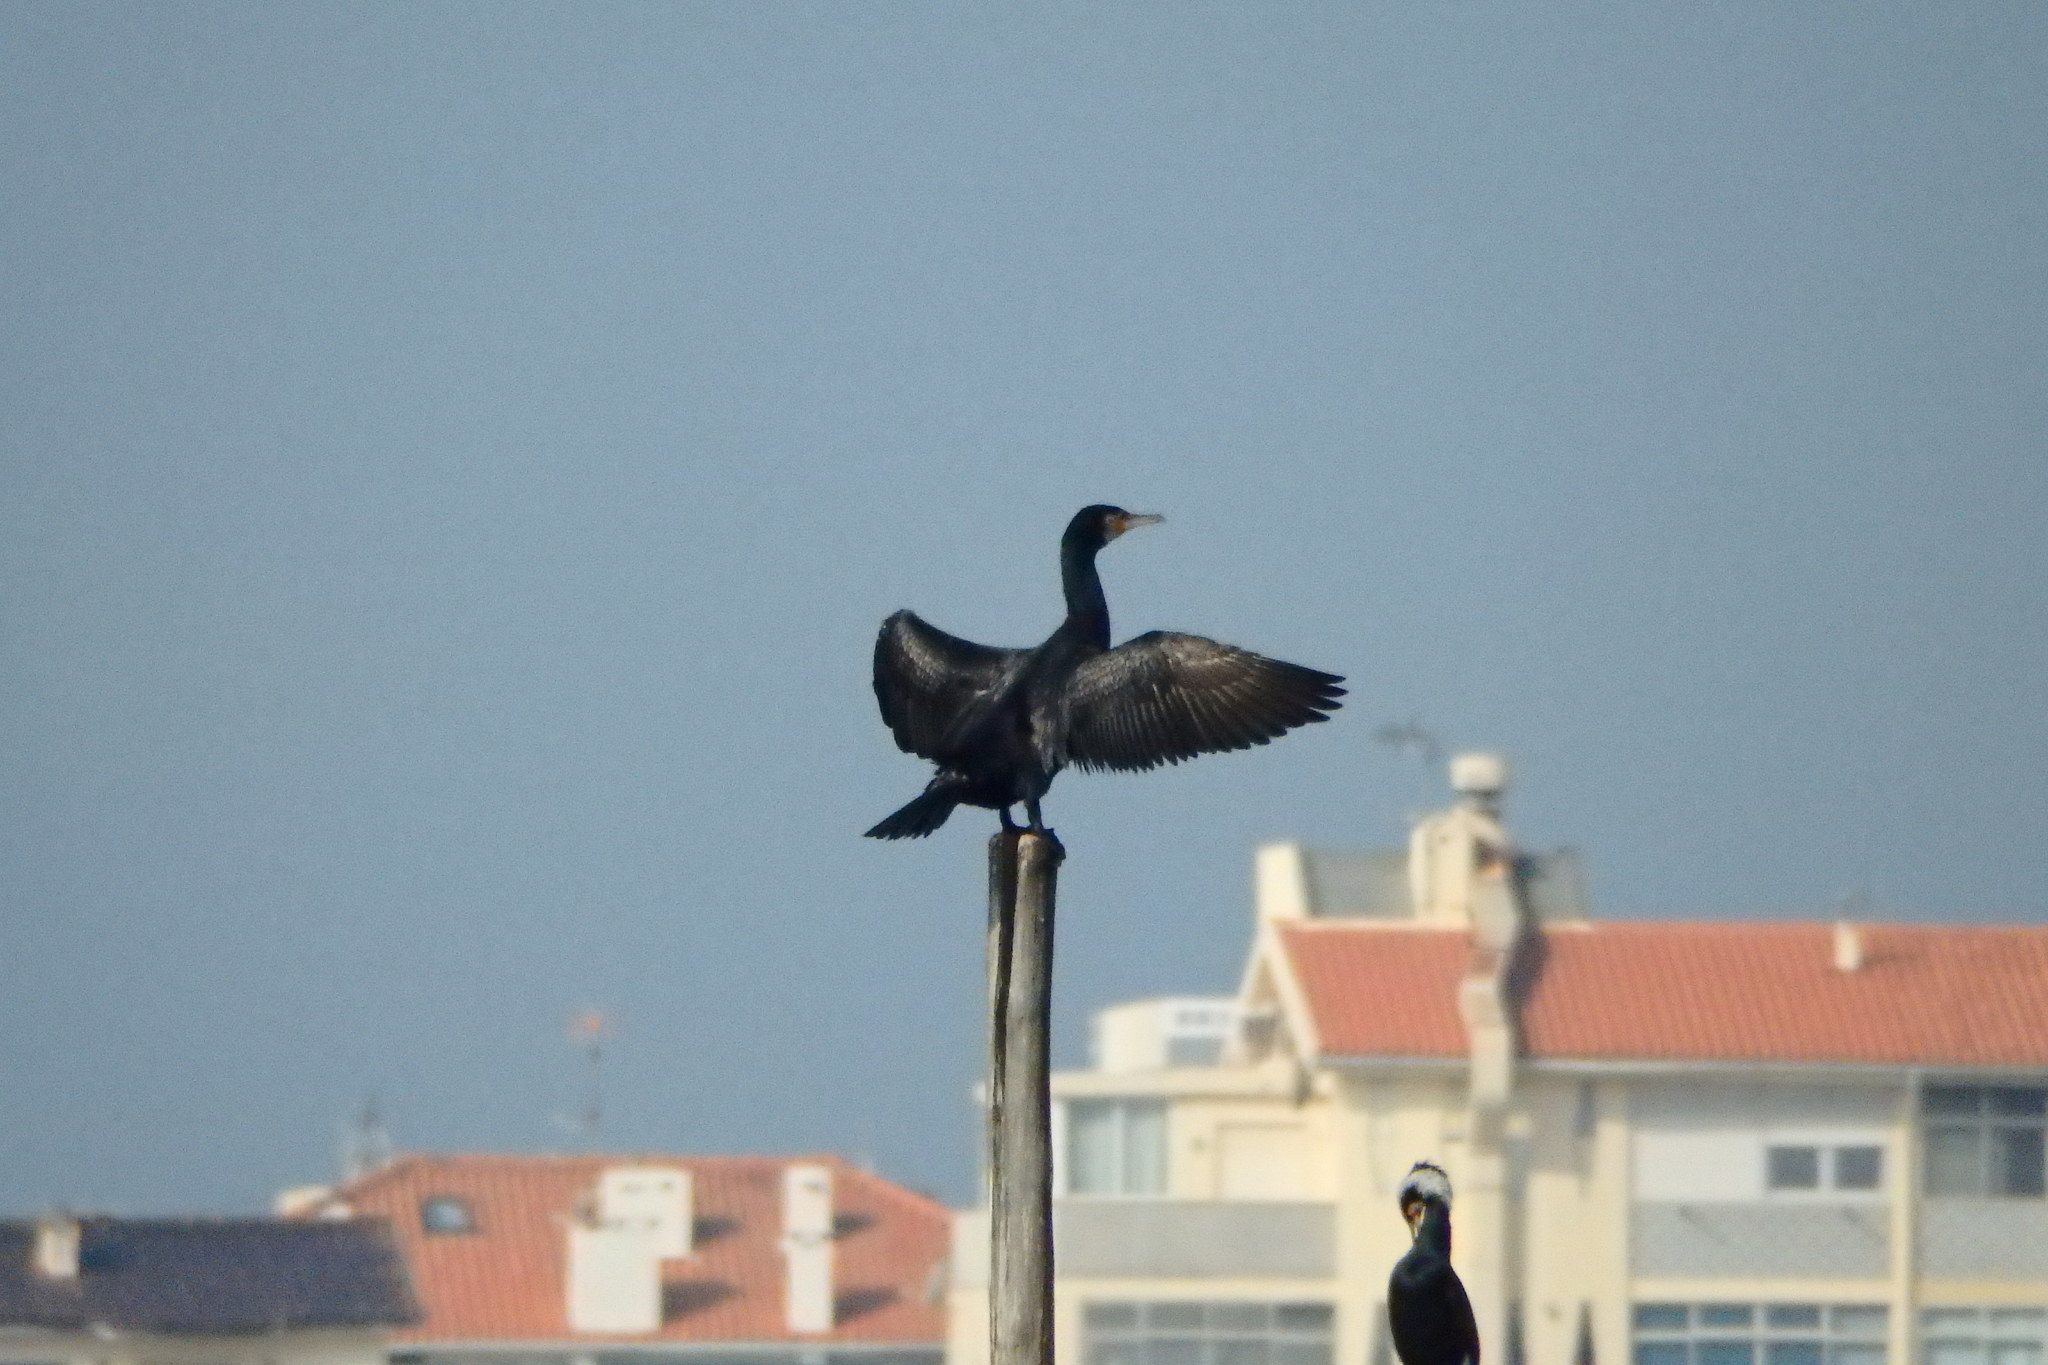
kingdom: Animalia
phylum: Chordata
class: Aves
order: Suliformes
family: Phalacrocoracidae
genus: Phalacrocorax
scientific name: Phalacrocorax carbo
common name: Great cormorant
